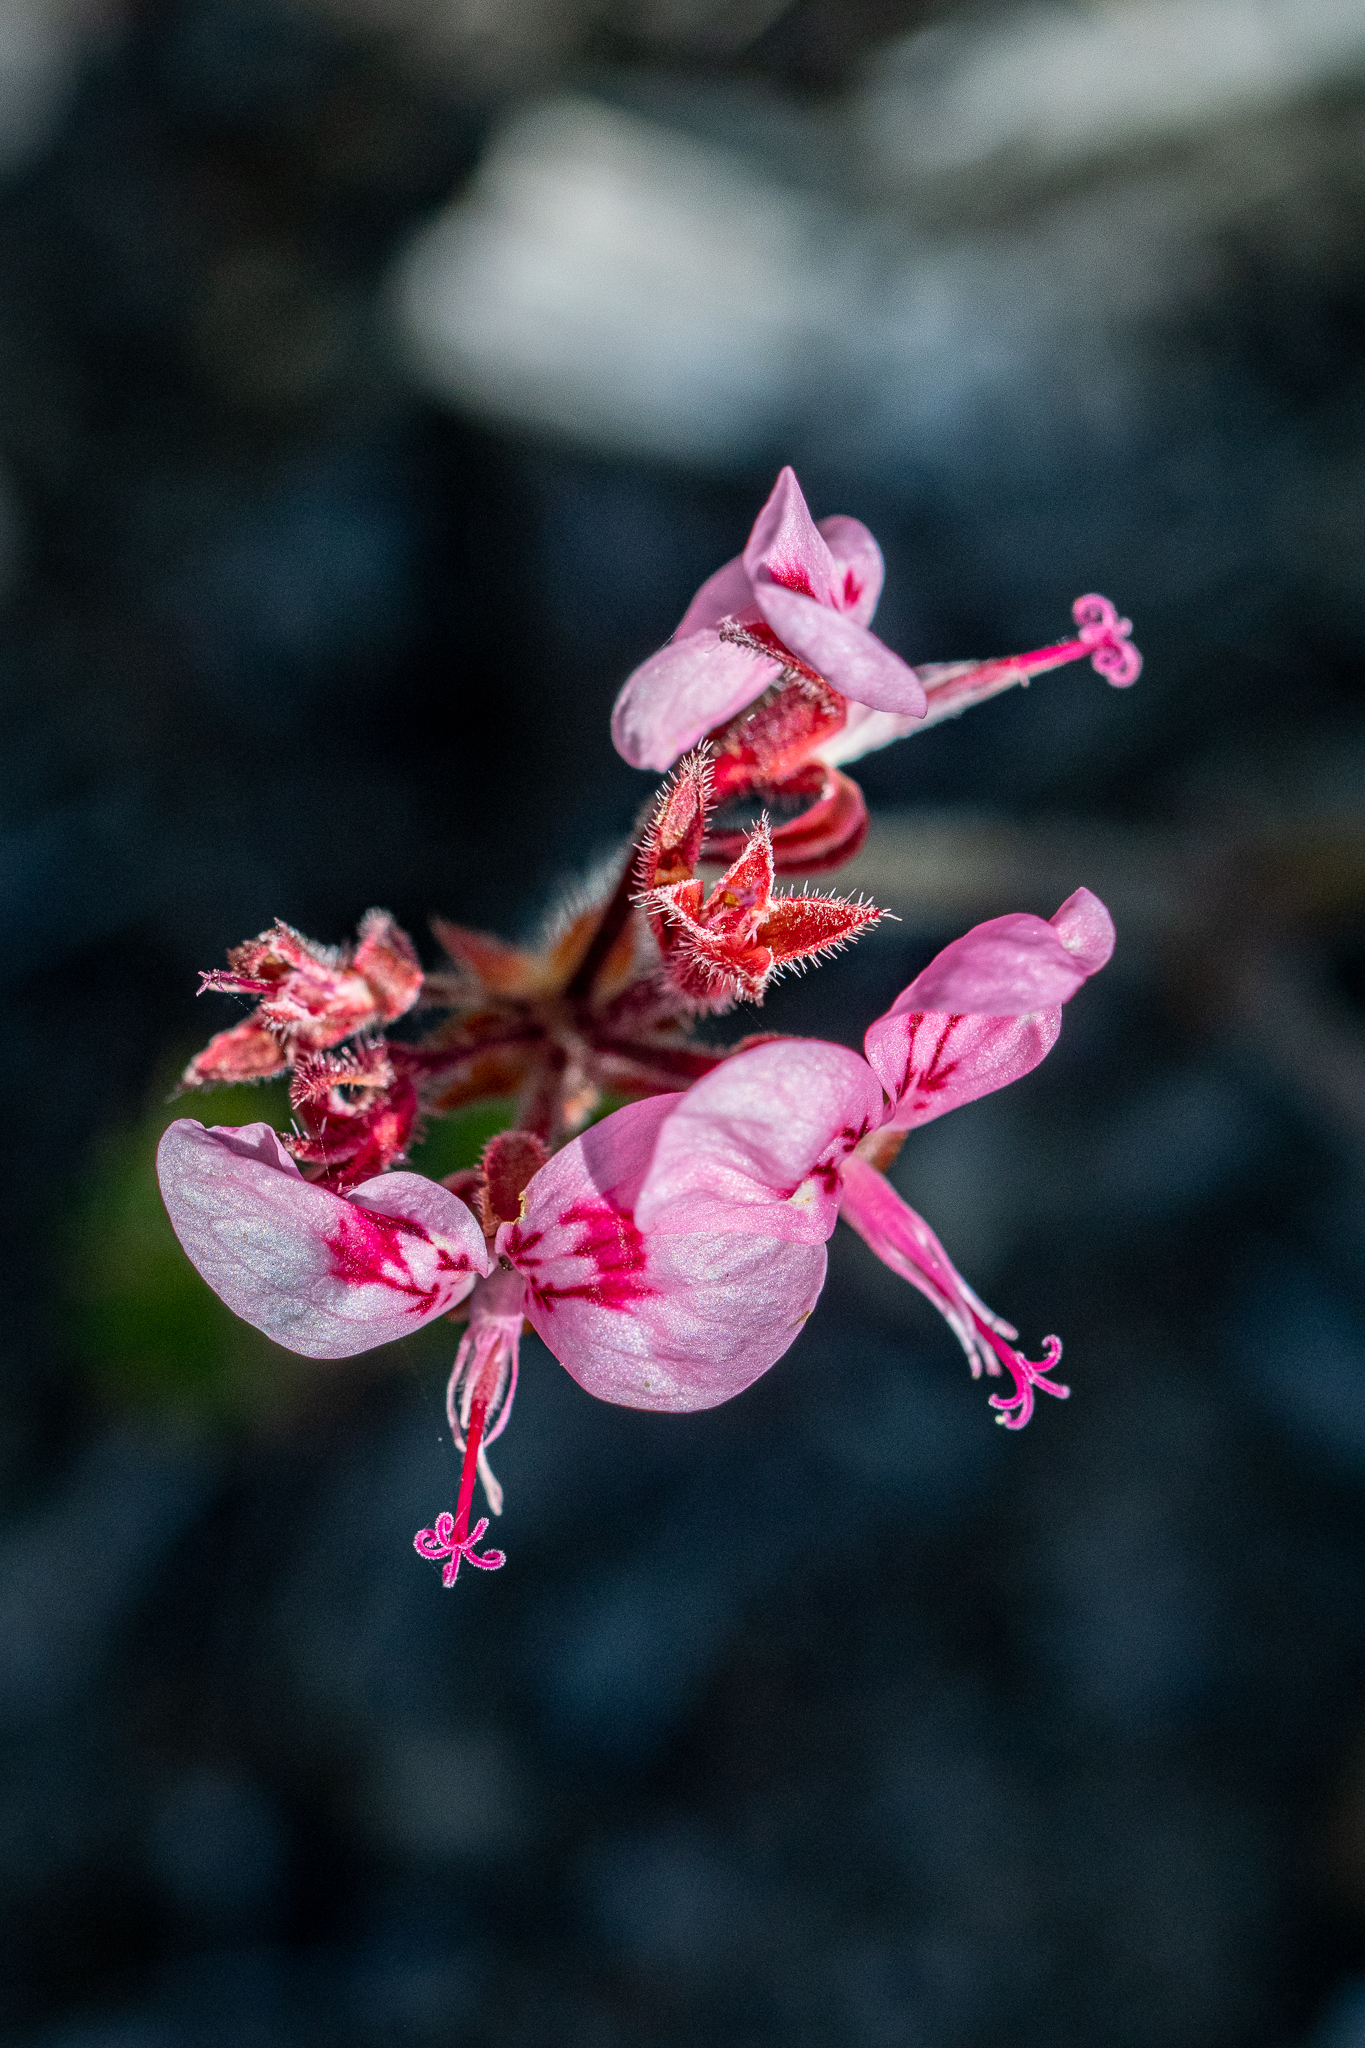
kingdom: Plantae
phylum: Tracheophyta
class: Magnoliopsida
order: Geraniales
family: Geraniaceae
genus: Pelargonium
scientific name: Pelargonium dipetalum
